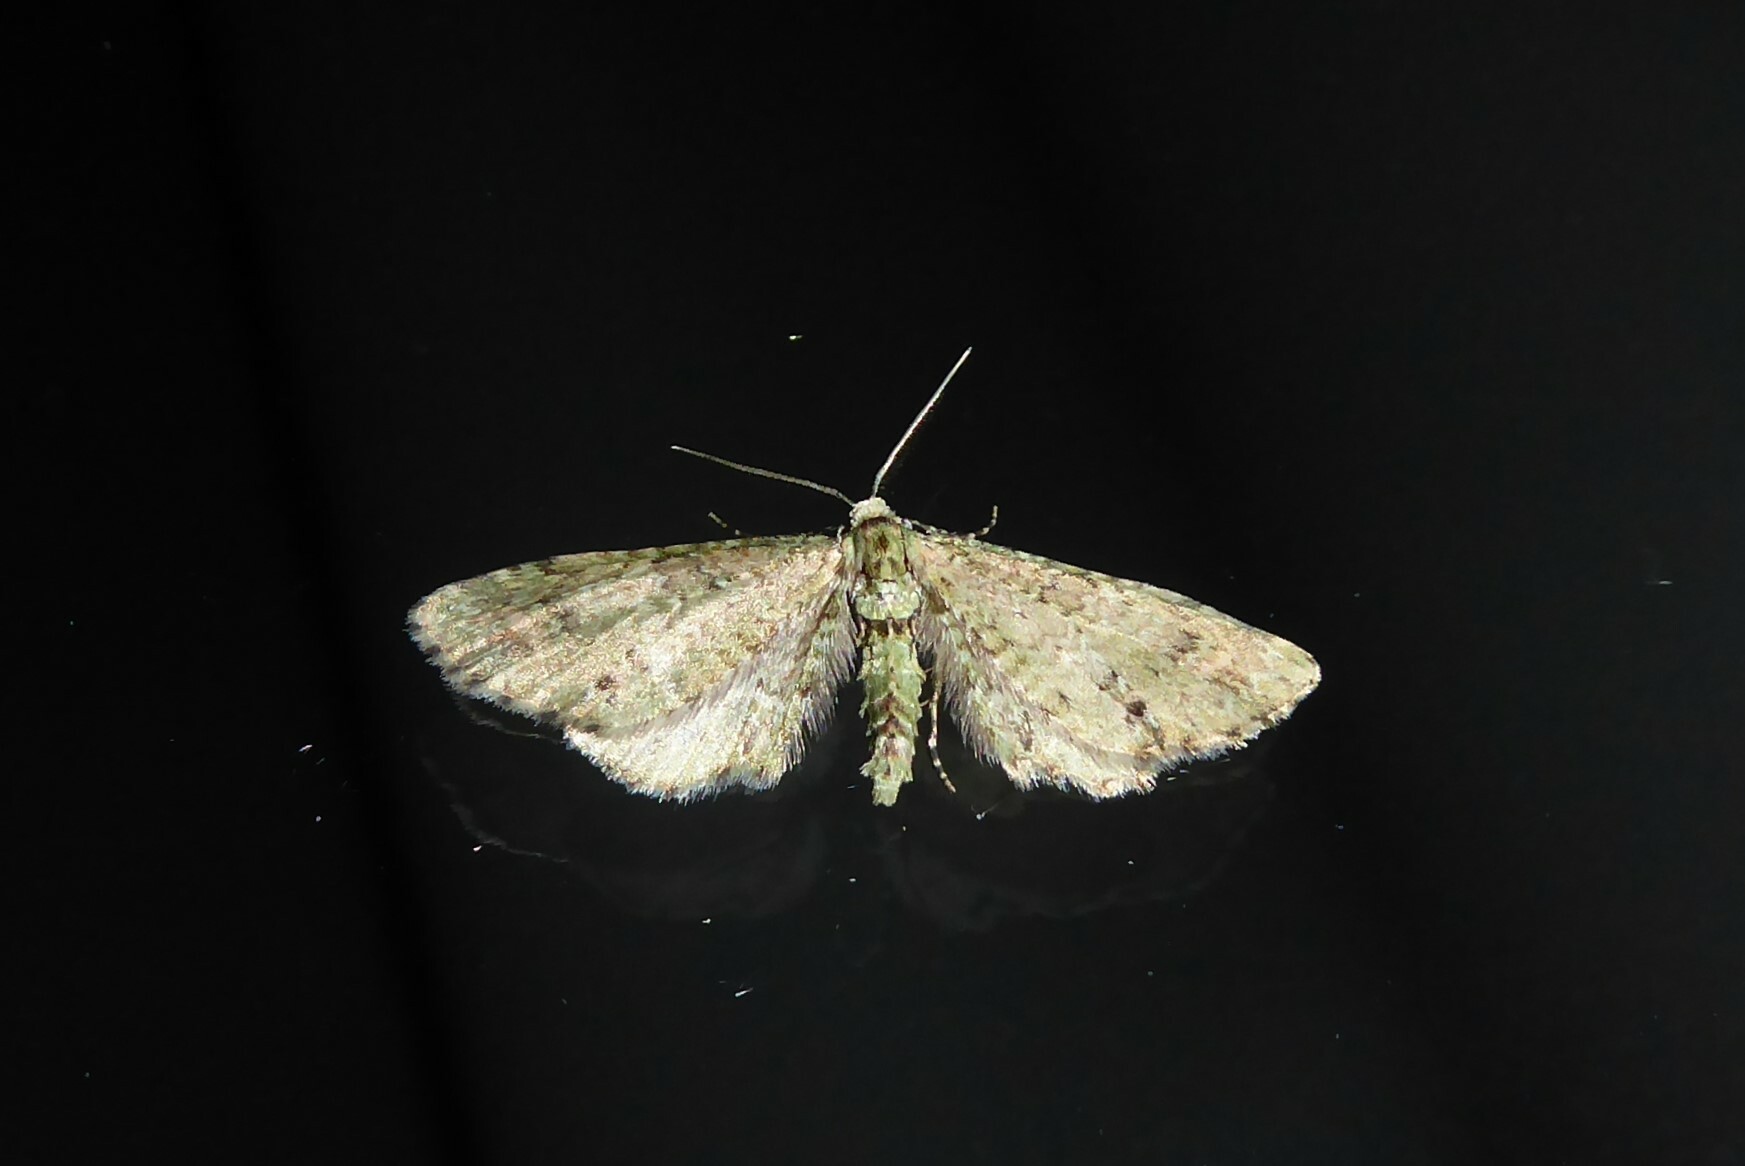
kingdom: Animalia
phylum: Arthropoda
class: Insecta
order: Lepidoptera
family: Geometridae
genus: Pasiphila
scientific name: Pasiphila cotinaea
